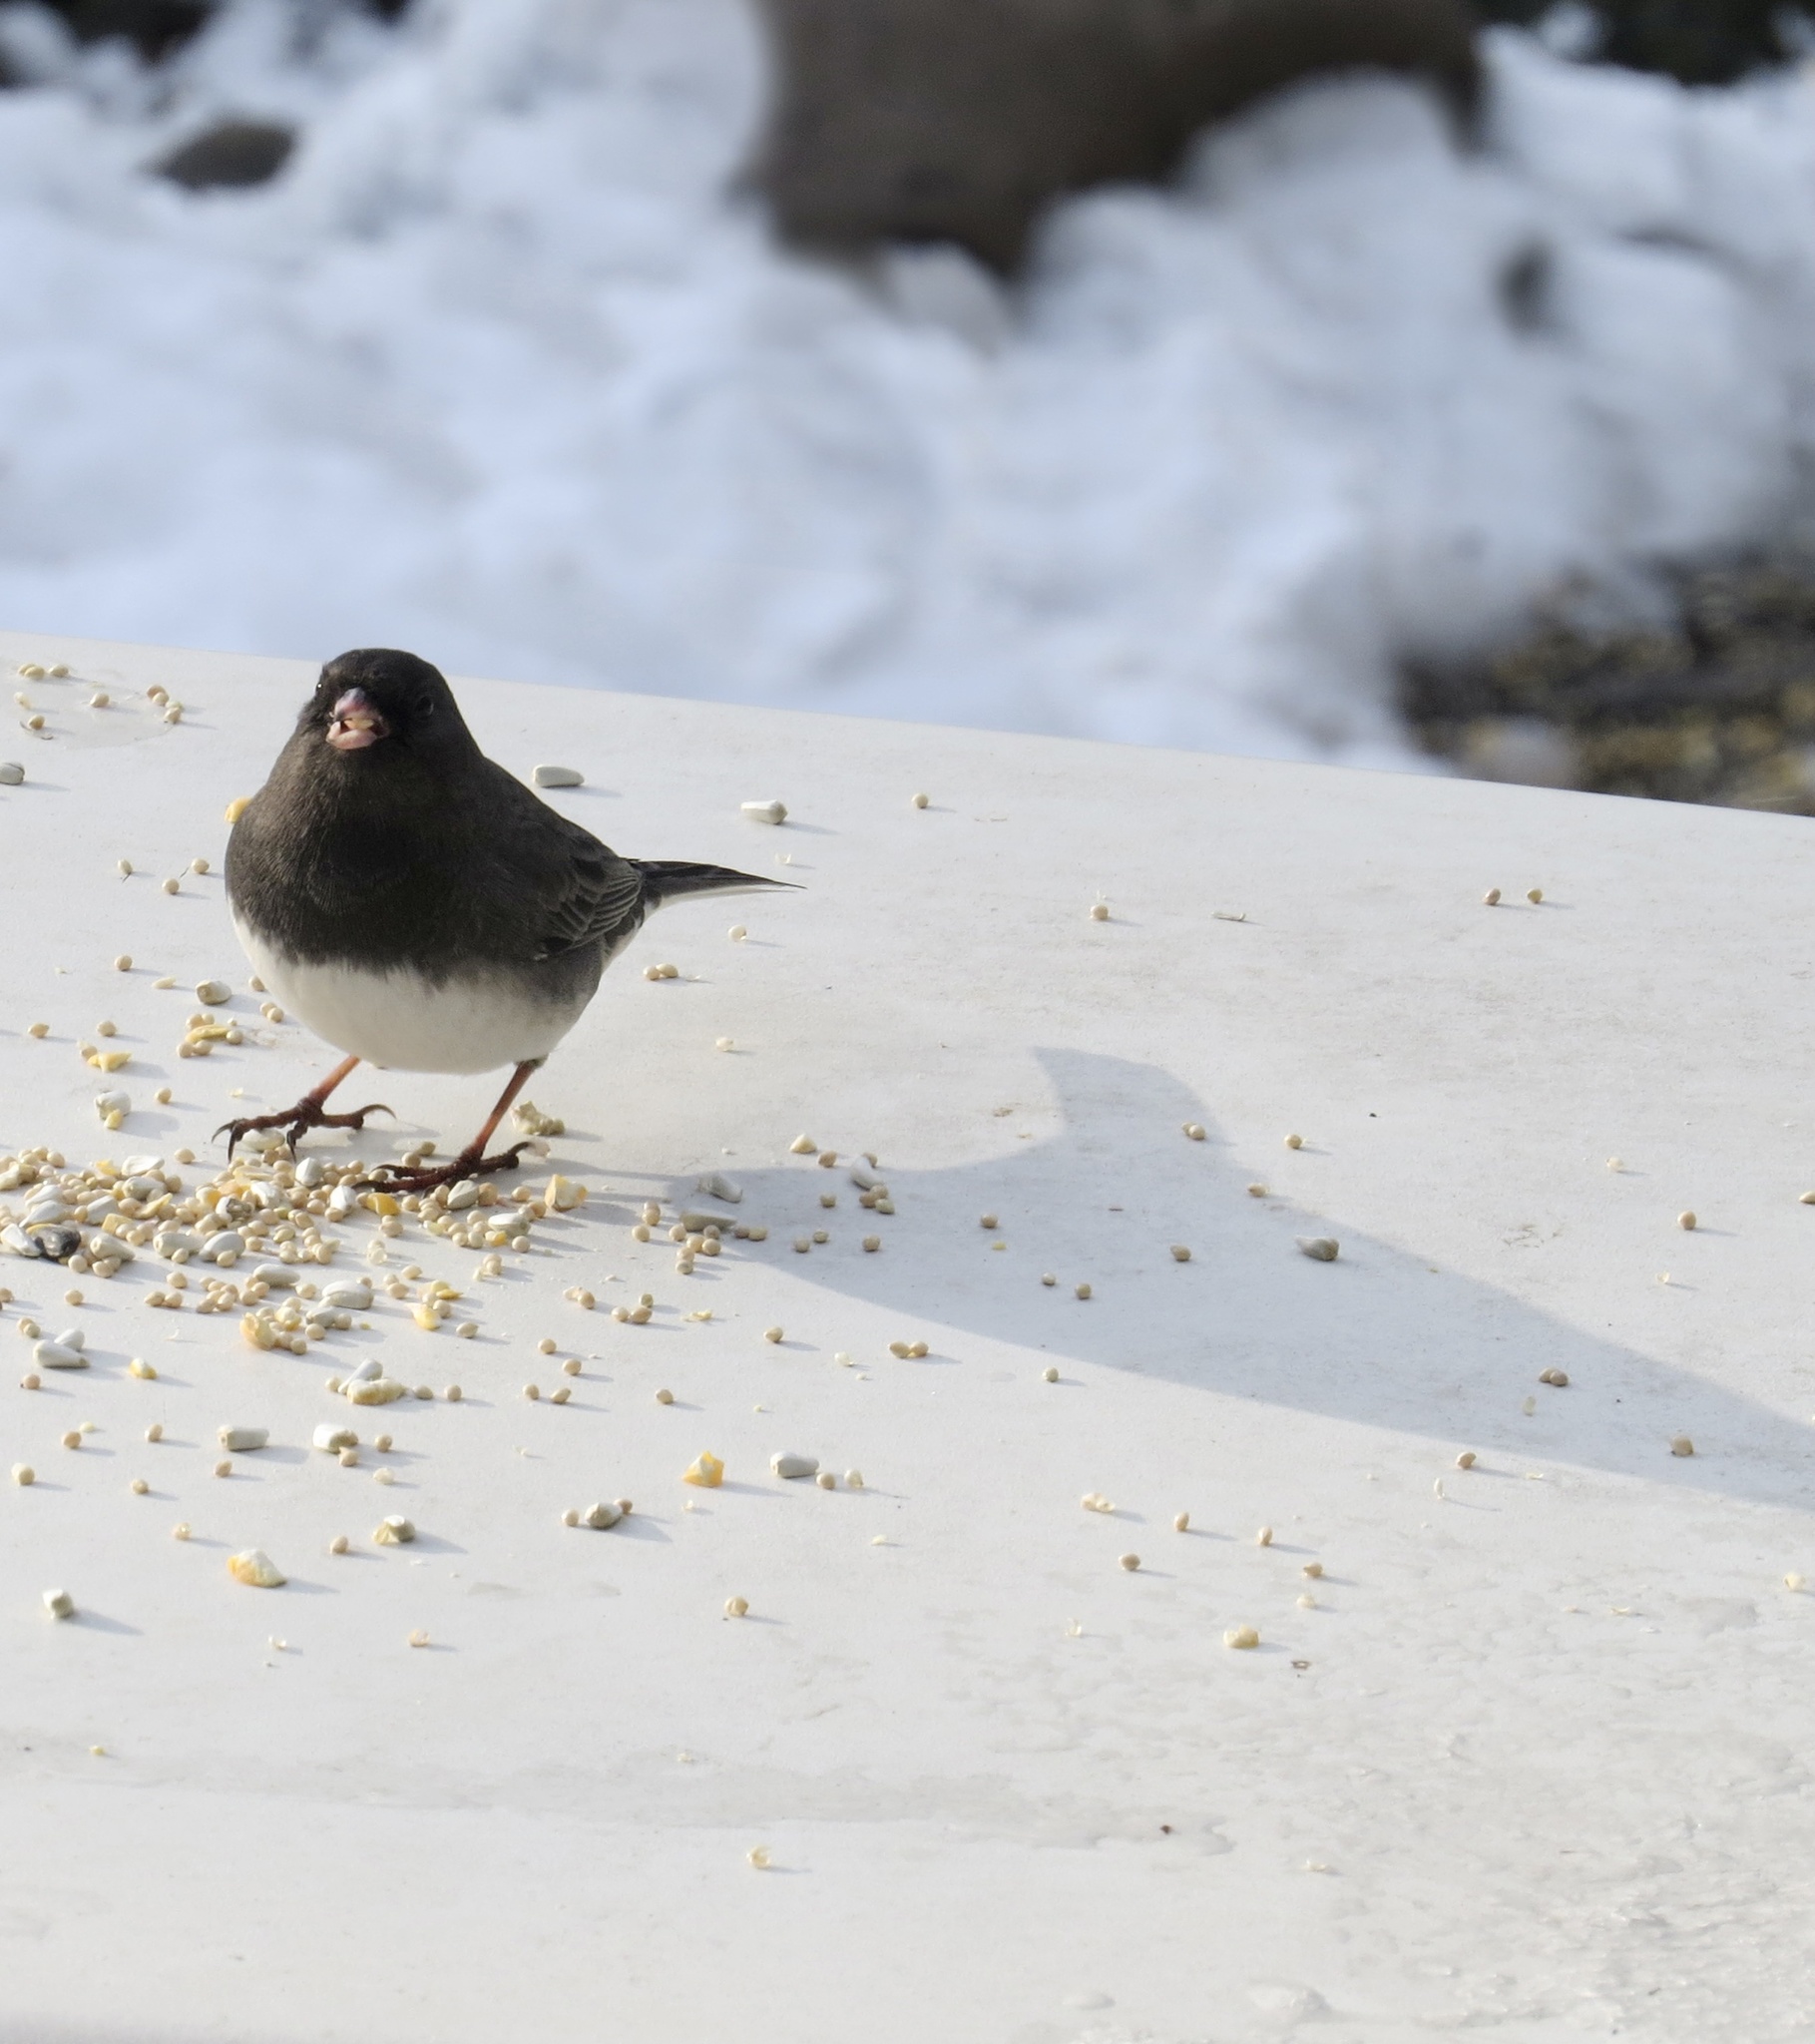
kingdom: Animalia
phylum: Chordata
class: Aves
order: Passeriformes
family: Passerellidae
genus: Junco
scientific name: Junco hyemalis
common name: Dark-eyed junco
